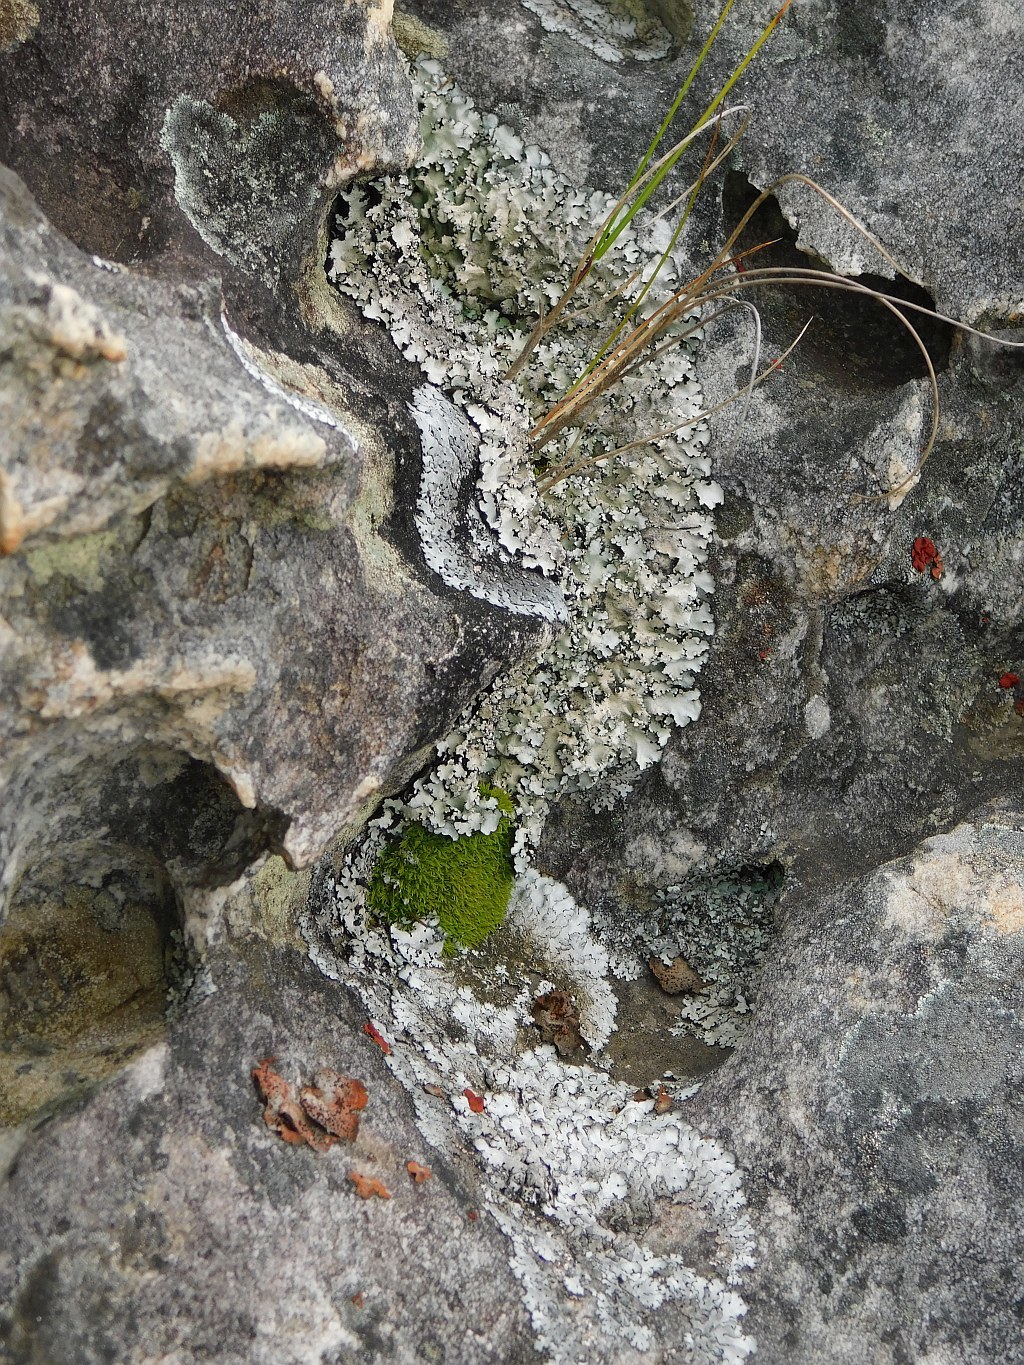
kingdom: Plantae
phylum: Bryophyta
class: Bryopsida
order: Dicranales
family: Hypodontiaceae
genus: Hypodontium
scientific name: Hypodontium pomiforme
